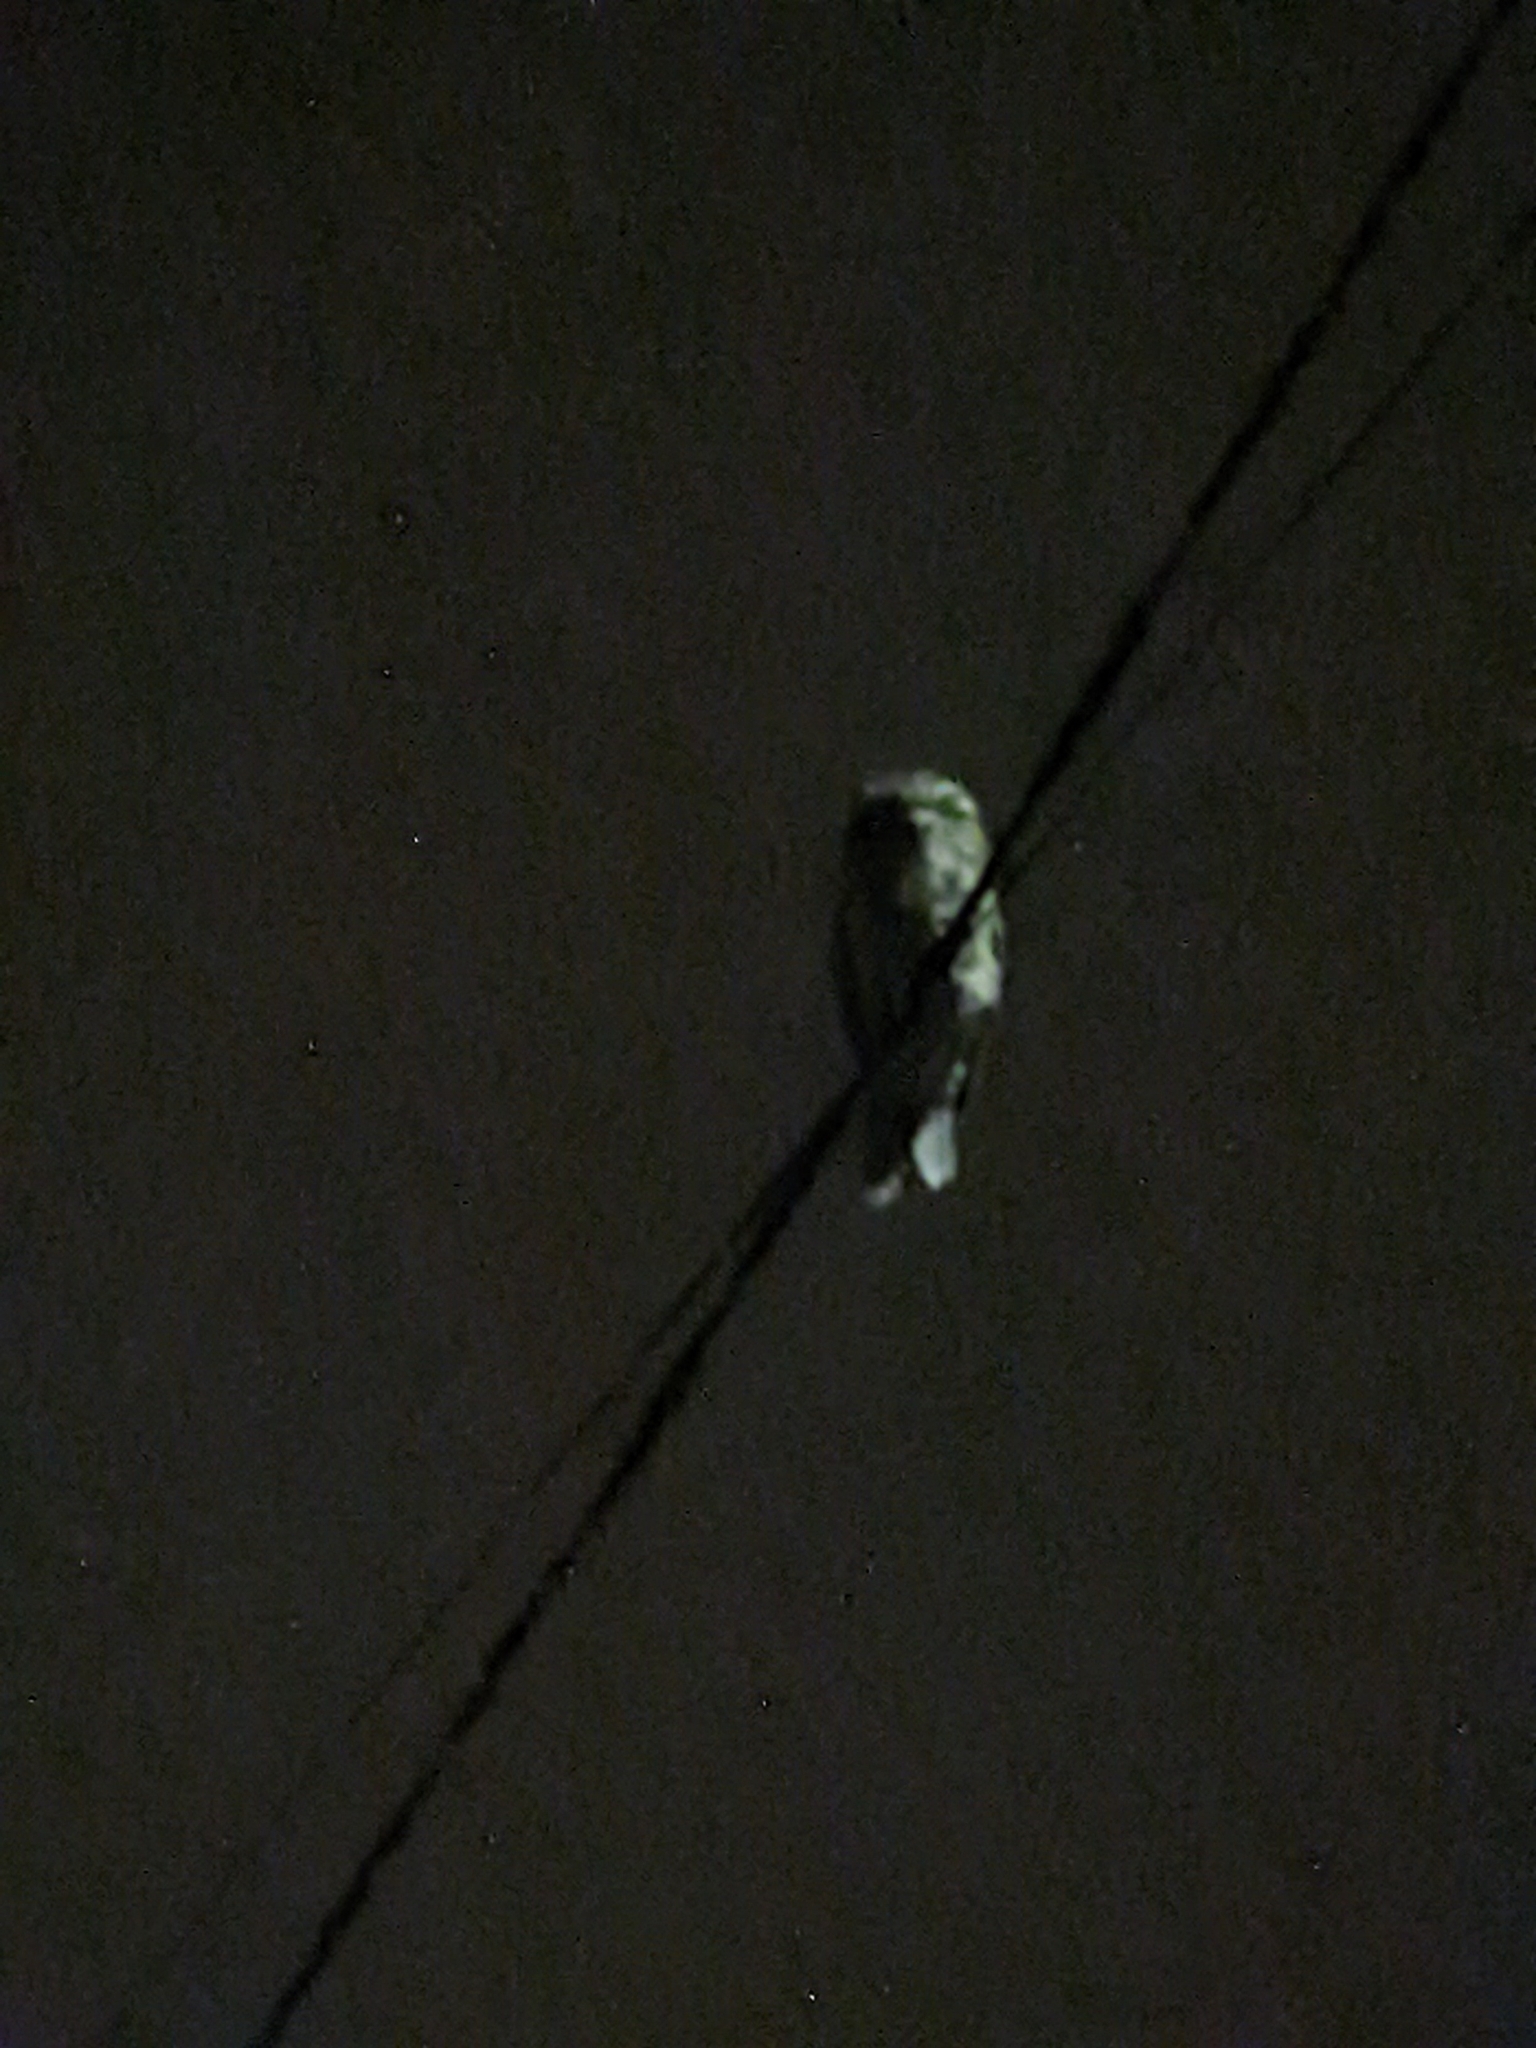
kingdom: Animalia
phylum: Chordata
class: Aves
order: Caprimulgiformes
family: Podargidae
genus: Podargus
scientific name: Podargus strigoides
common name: Tawny frogmouth
